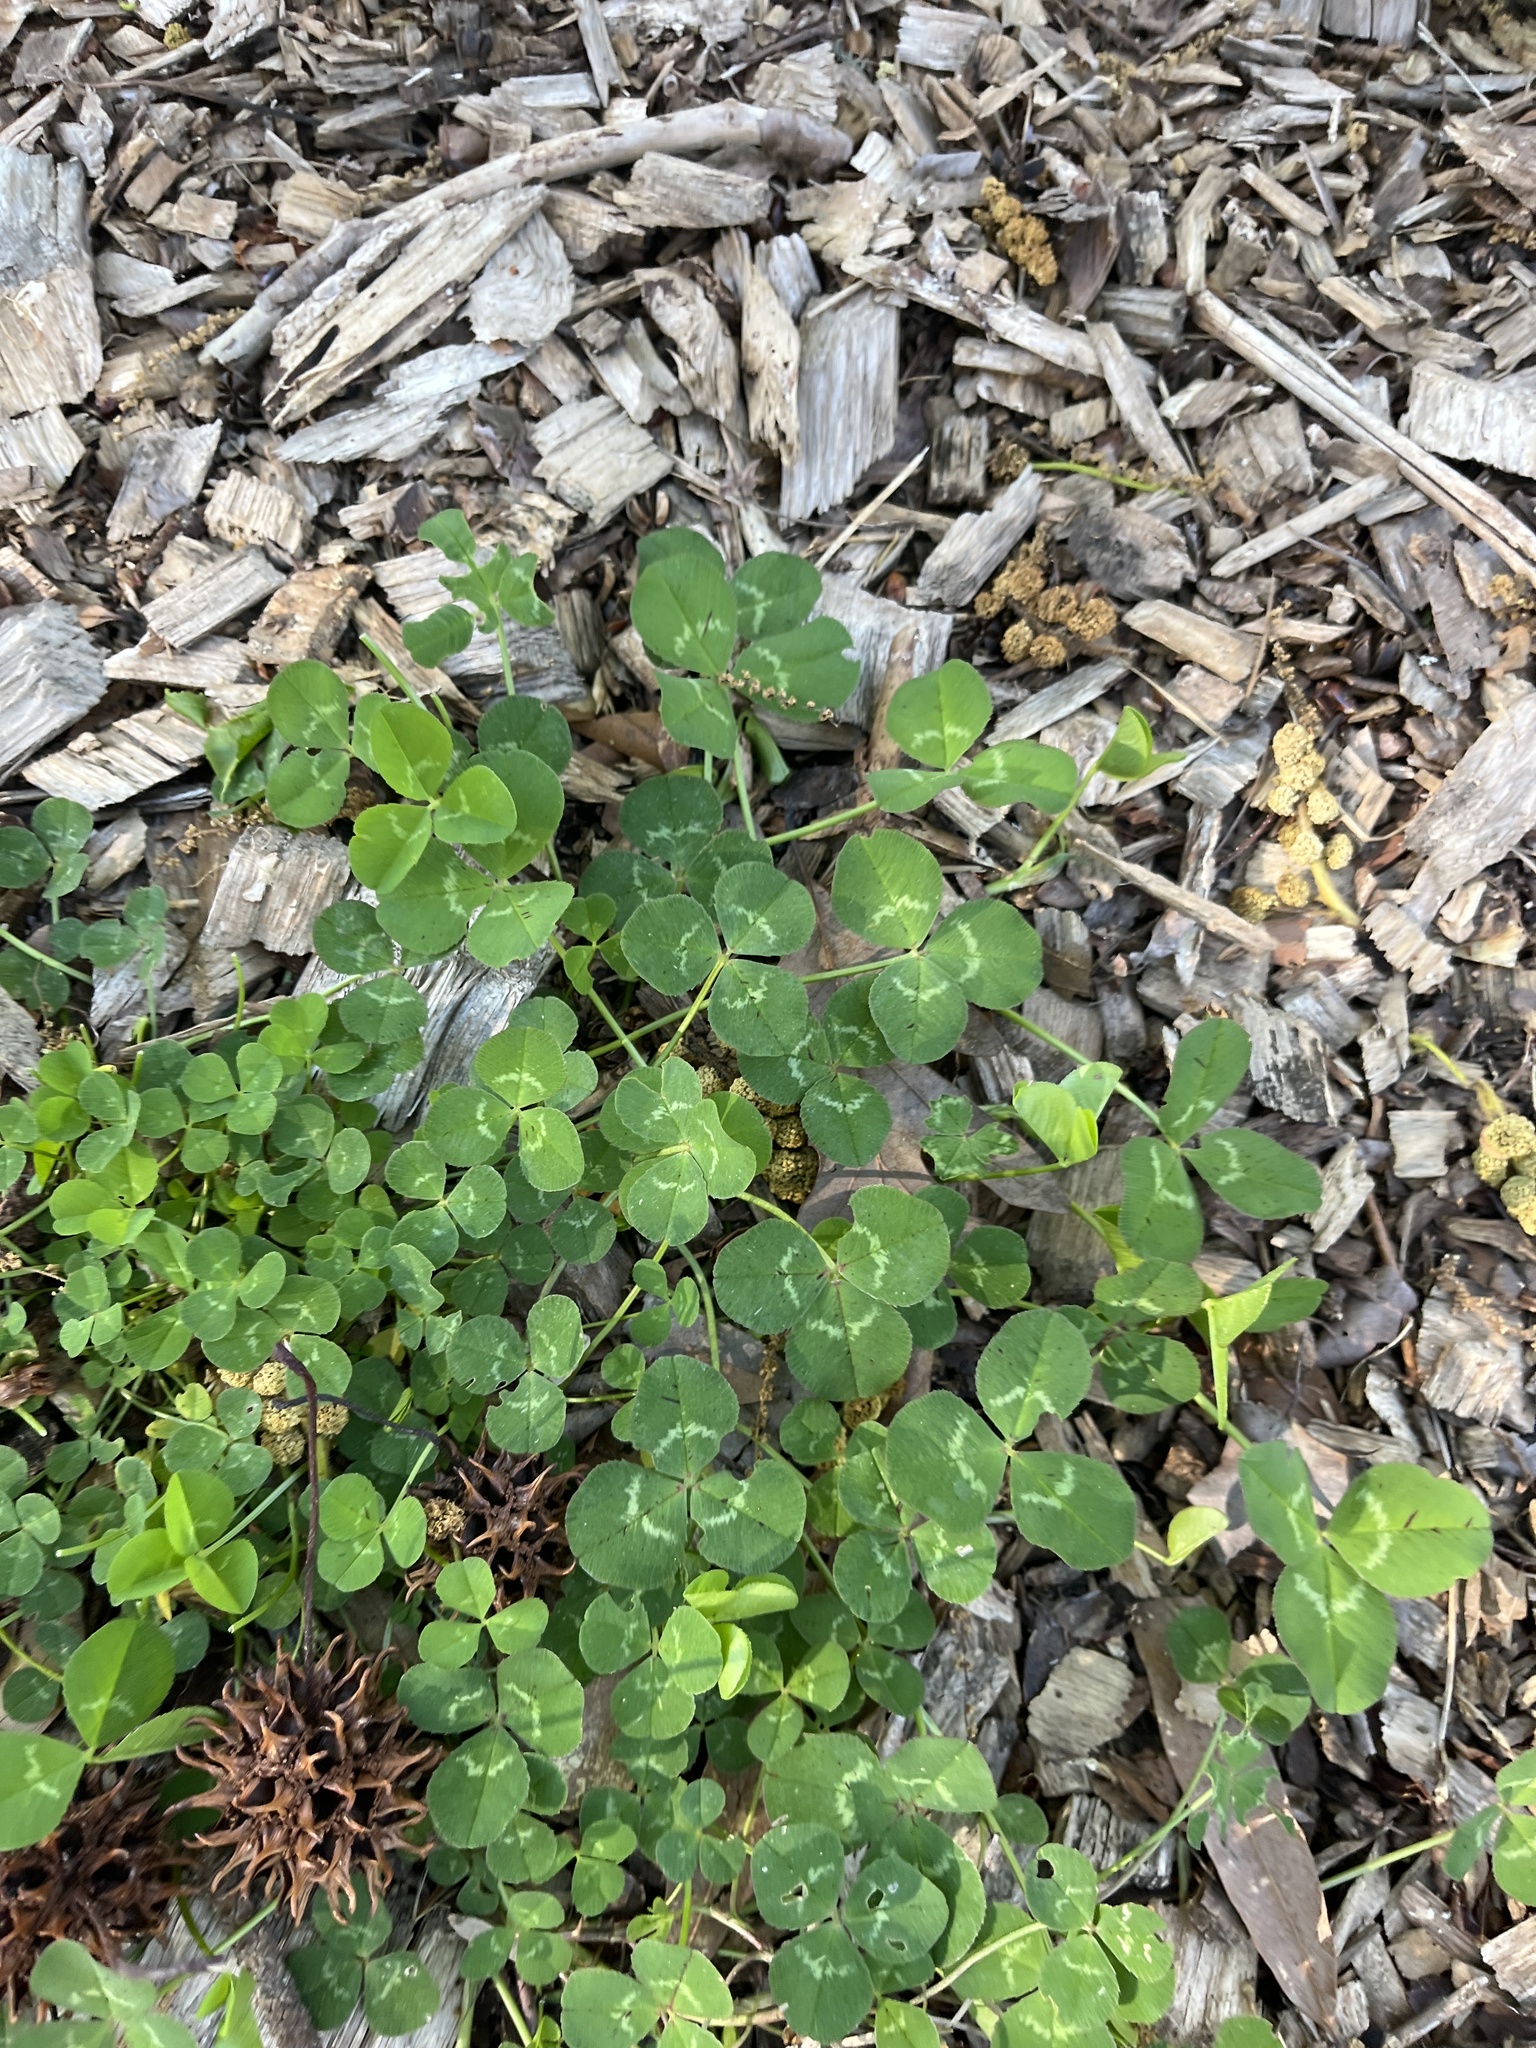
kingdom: Plantae
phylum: Tracheophyta
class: Magnoliopsida
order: Fabales
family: Fabaceae
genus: Trifolium
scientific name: Trifolium repens
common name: White clover
